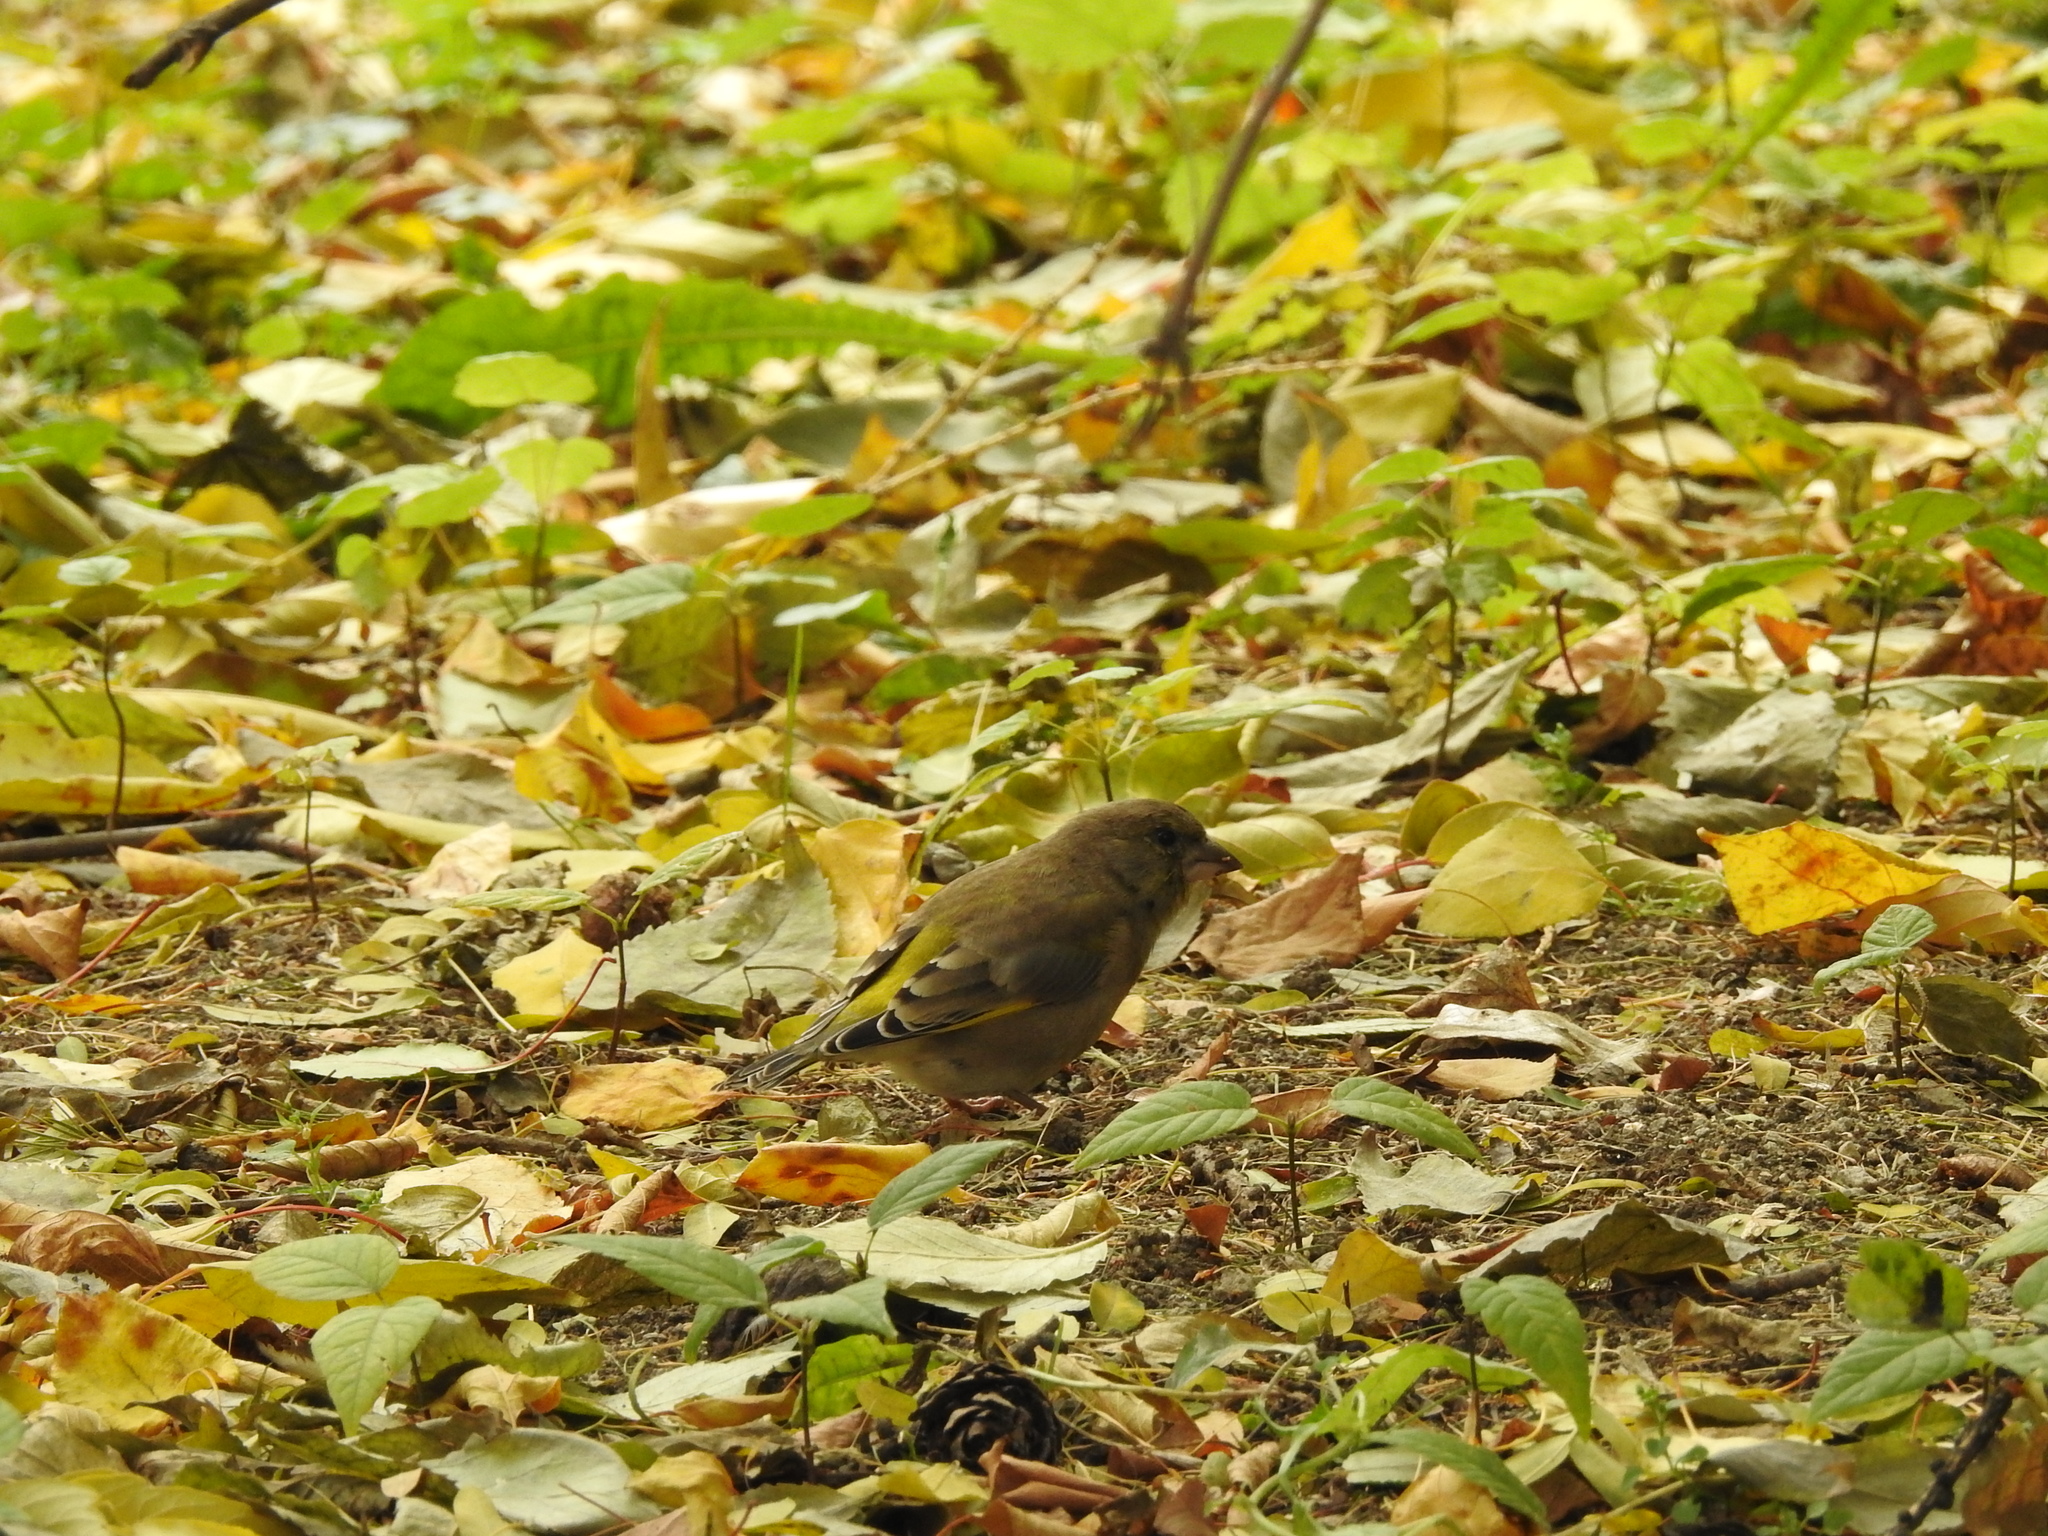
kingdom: Plantae
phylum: Tracheophyta
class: Liliopsida
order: Poales
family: Poaceae
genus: Chloris
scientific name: Chloris chloris
